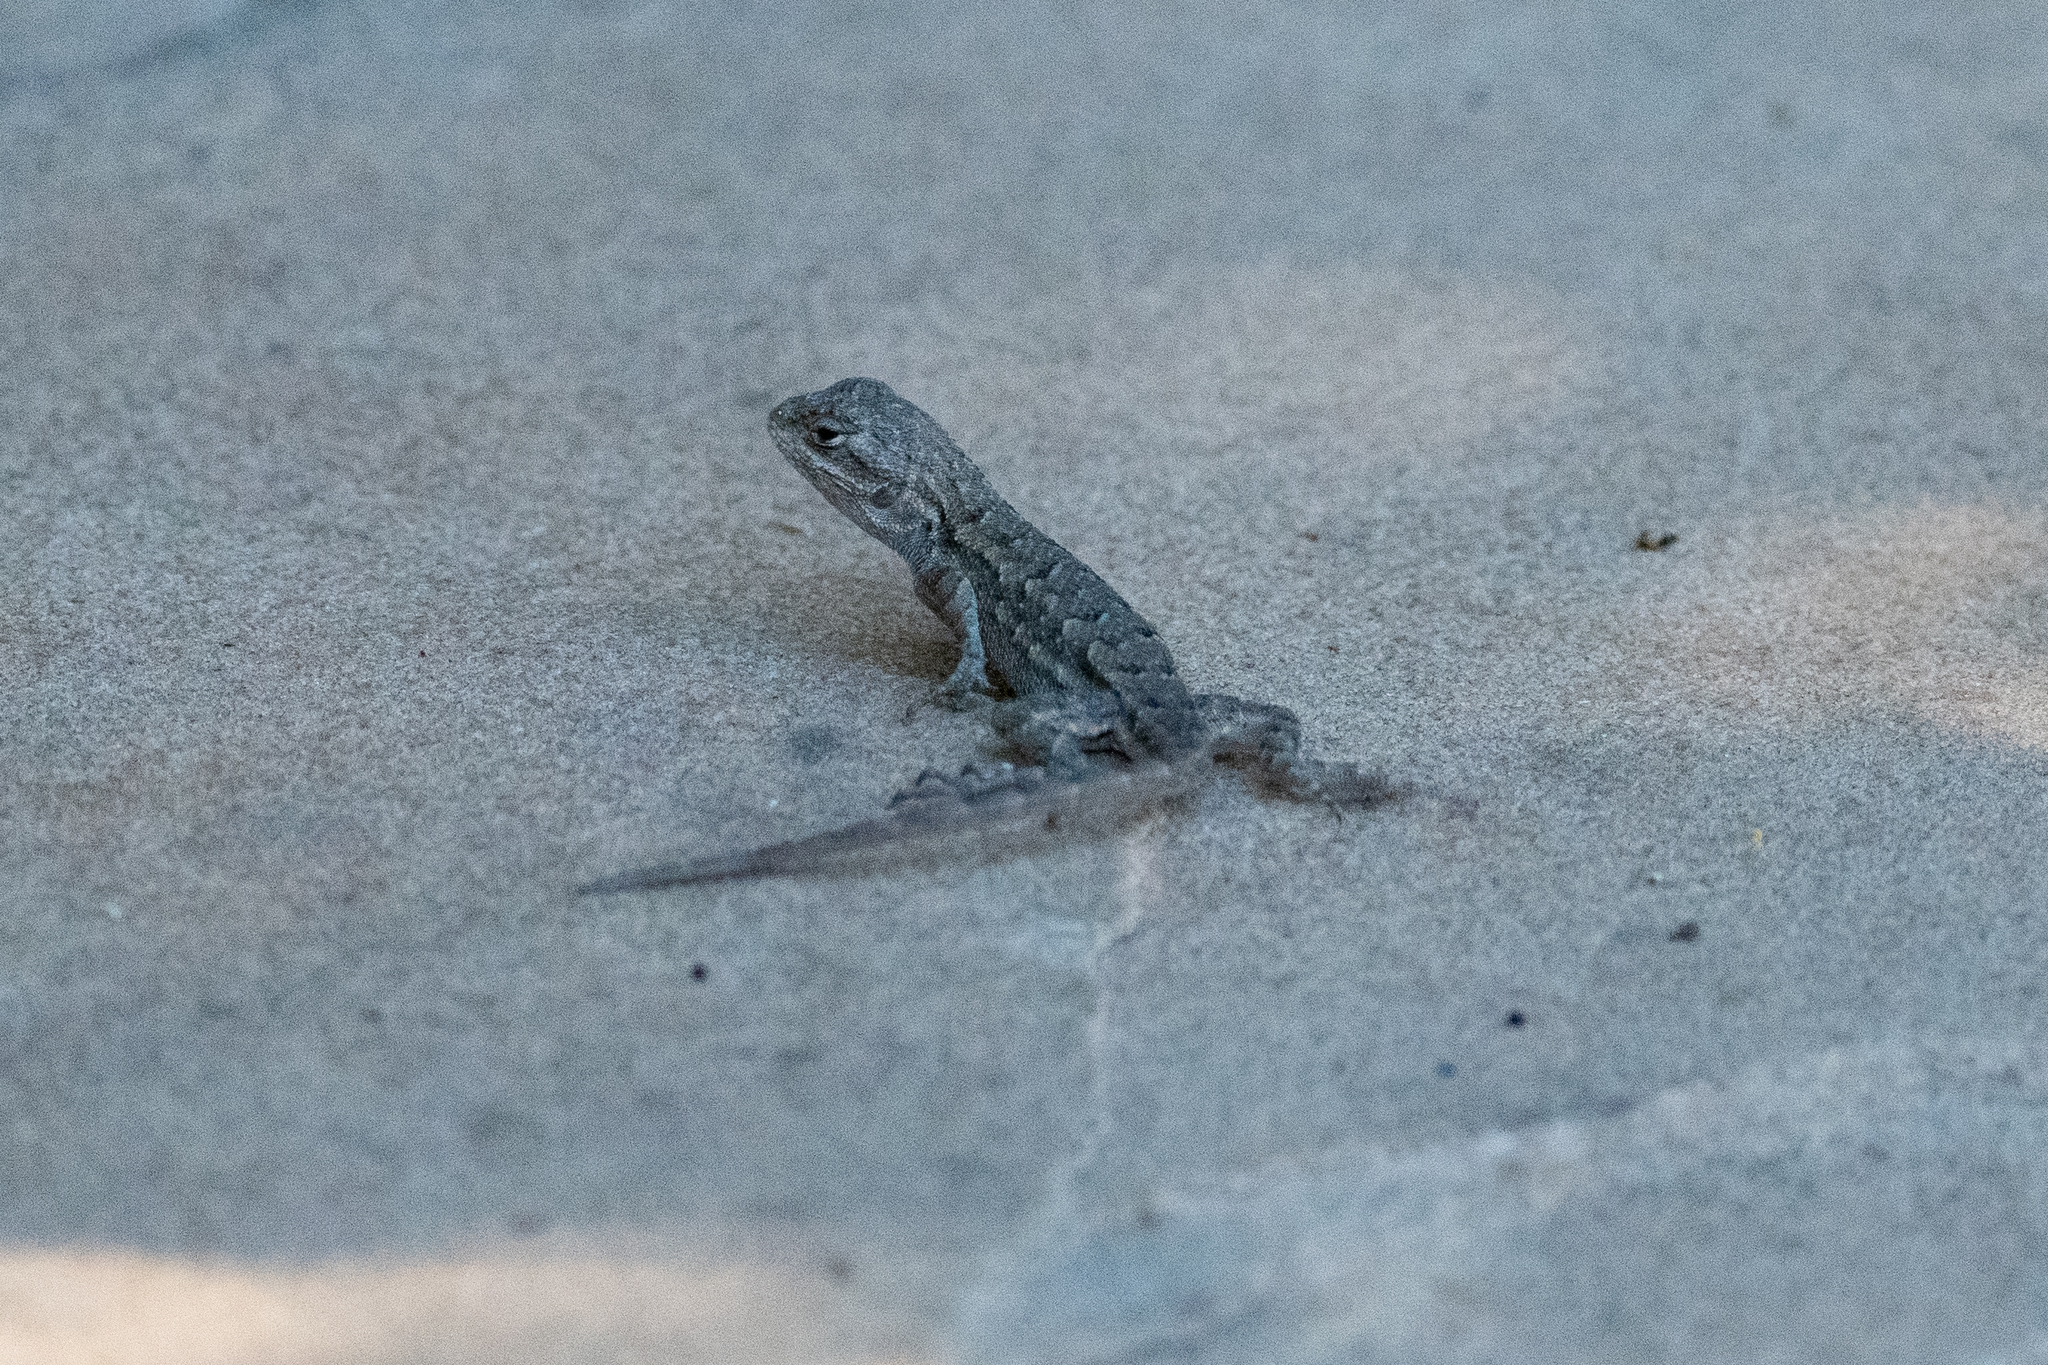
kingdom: Animalia
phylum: Chordata
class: Squamata
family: Phrynosomatidae
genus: Sceloporus
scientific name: Sceloporus occidentalis
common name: Western fence lizard
